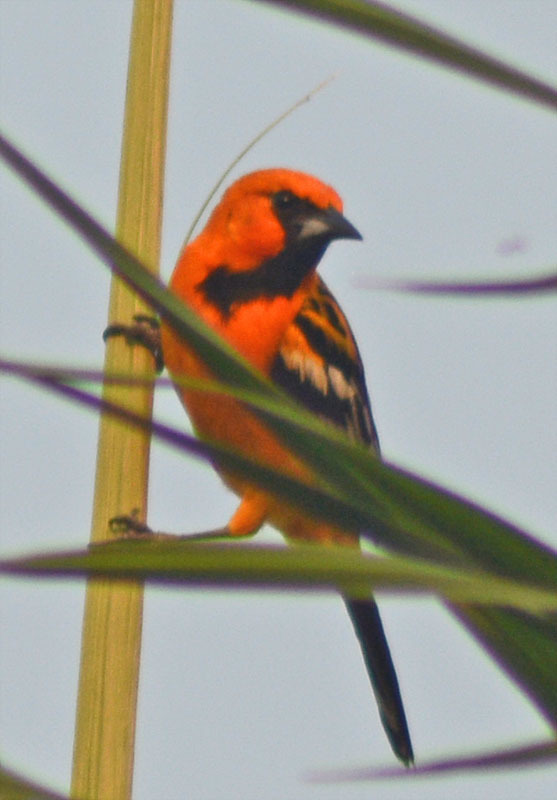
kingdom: Animalia
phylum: Chordata
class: Aves
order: Passeriformes
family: Icteridae
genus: Icterus
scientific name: Icterus gularis
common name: Altamira oriole
